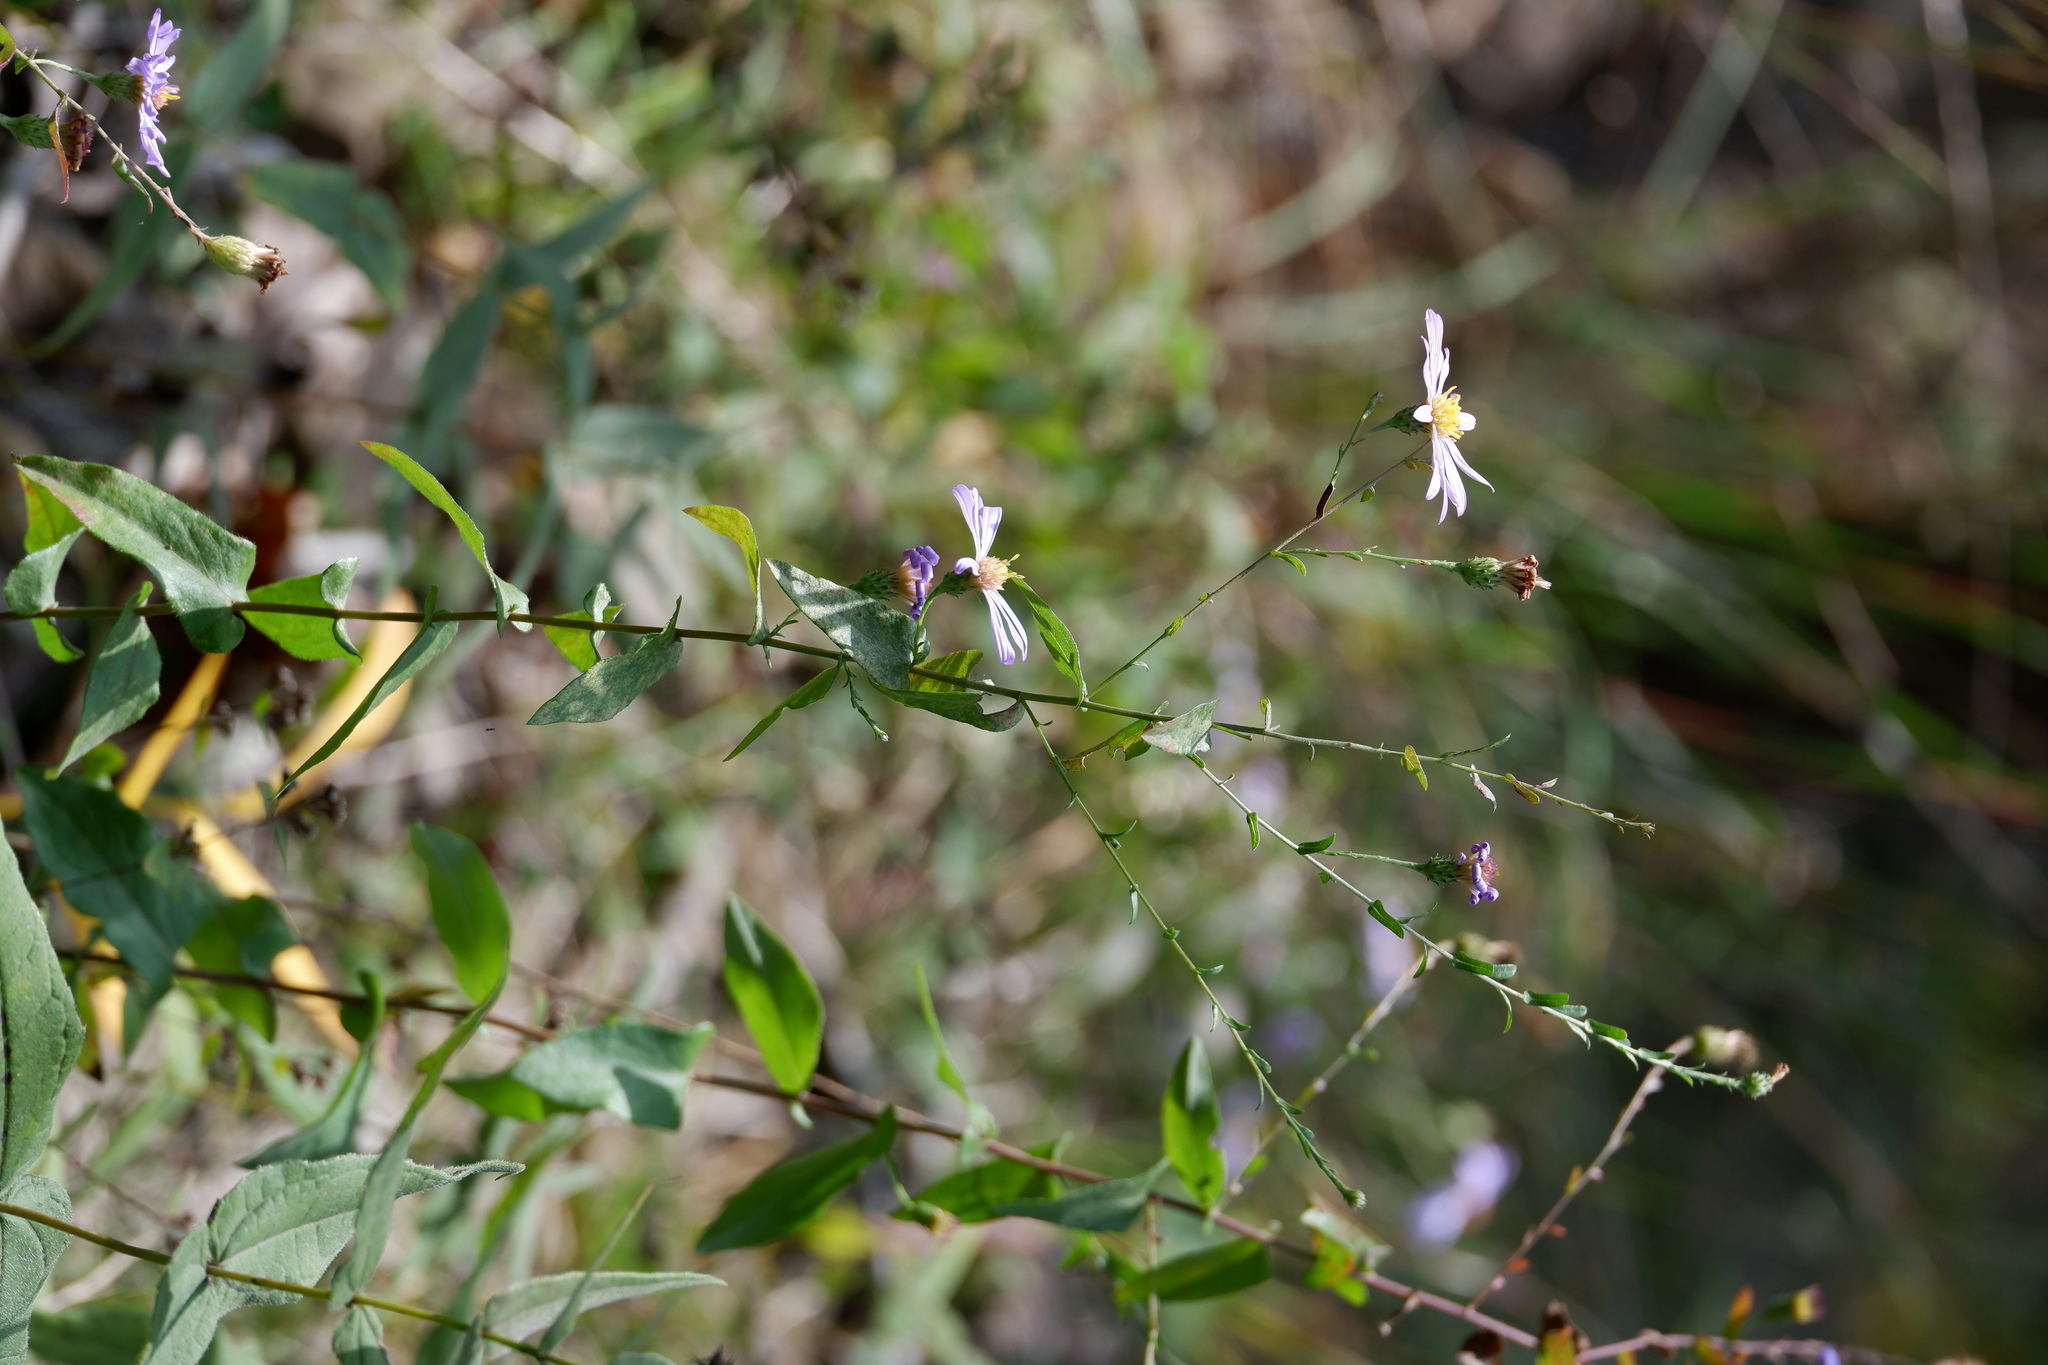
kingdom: Plantae
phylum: Tracheophyta
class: Magnoliopsida
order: Asterales
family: Asteraceae
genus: Symphyotrichum
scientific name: Symphyotrichum patens
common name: Late purple aster
